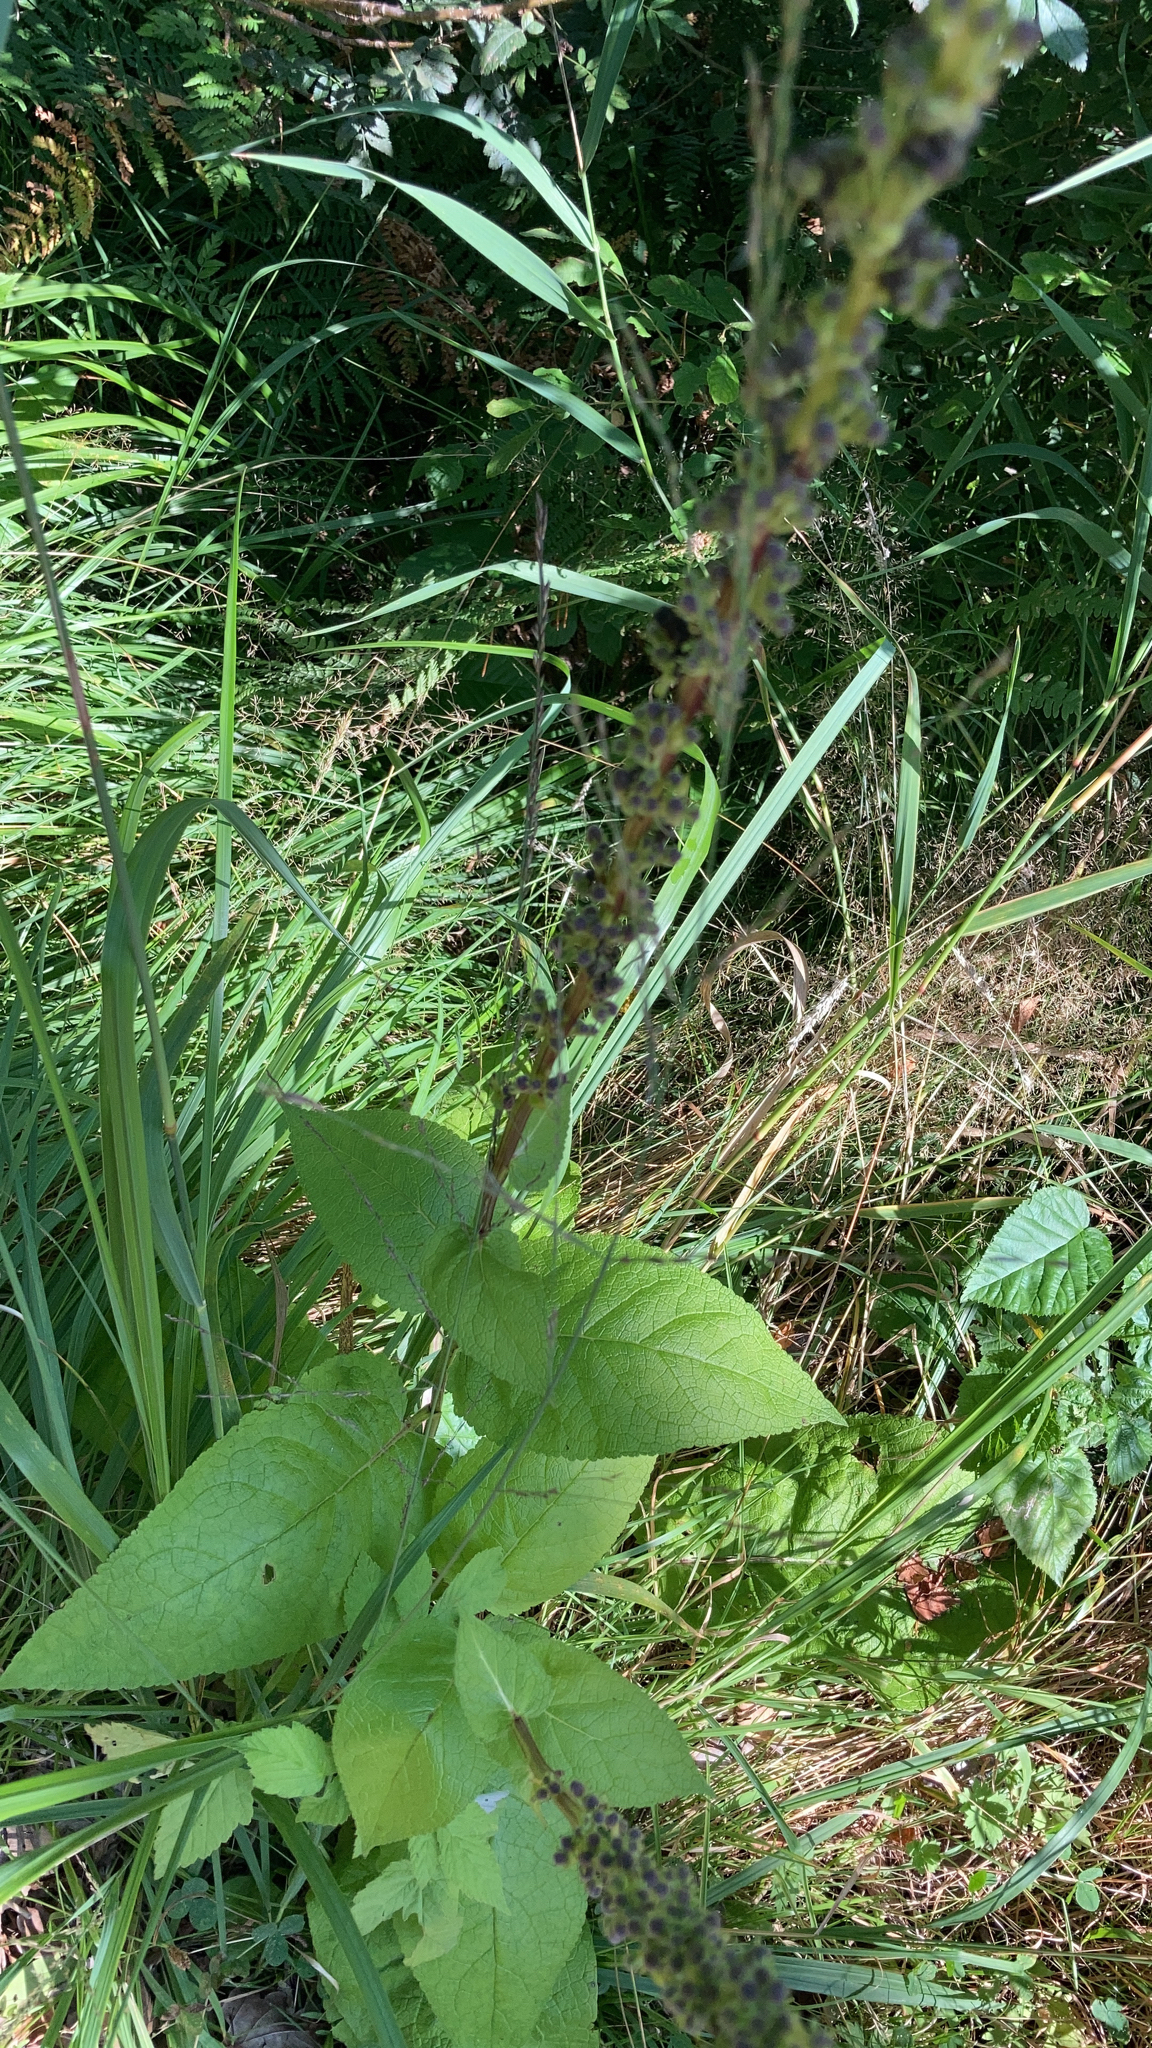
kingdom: Plantae
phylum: Tracheophyta
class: Magnoliopsida
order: Lamiales
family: Scrophulariaceae
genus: Verbascum
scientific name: Verbascum nigrum
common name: Dark mullein
